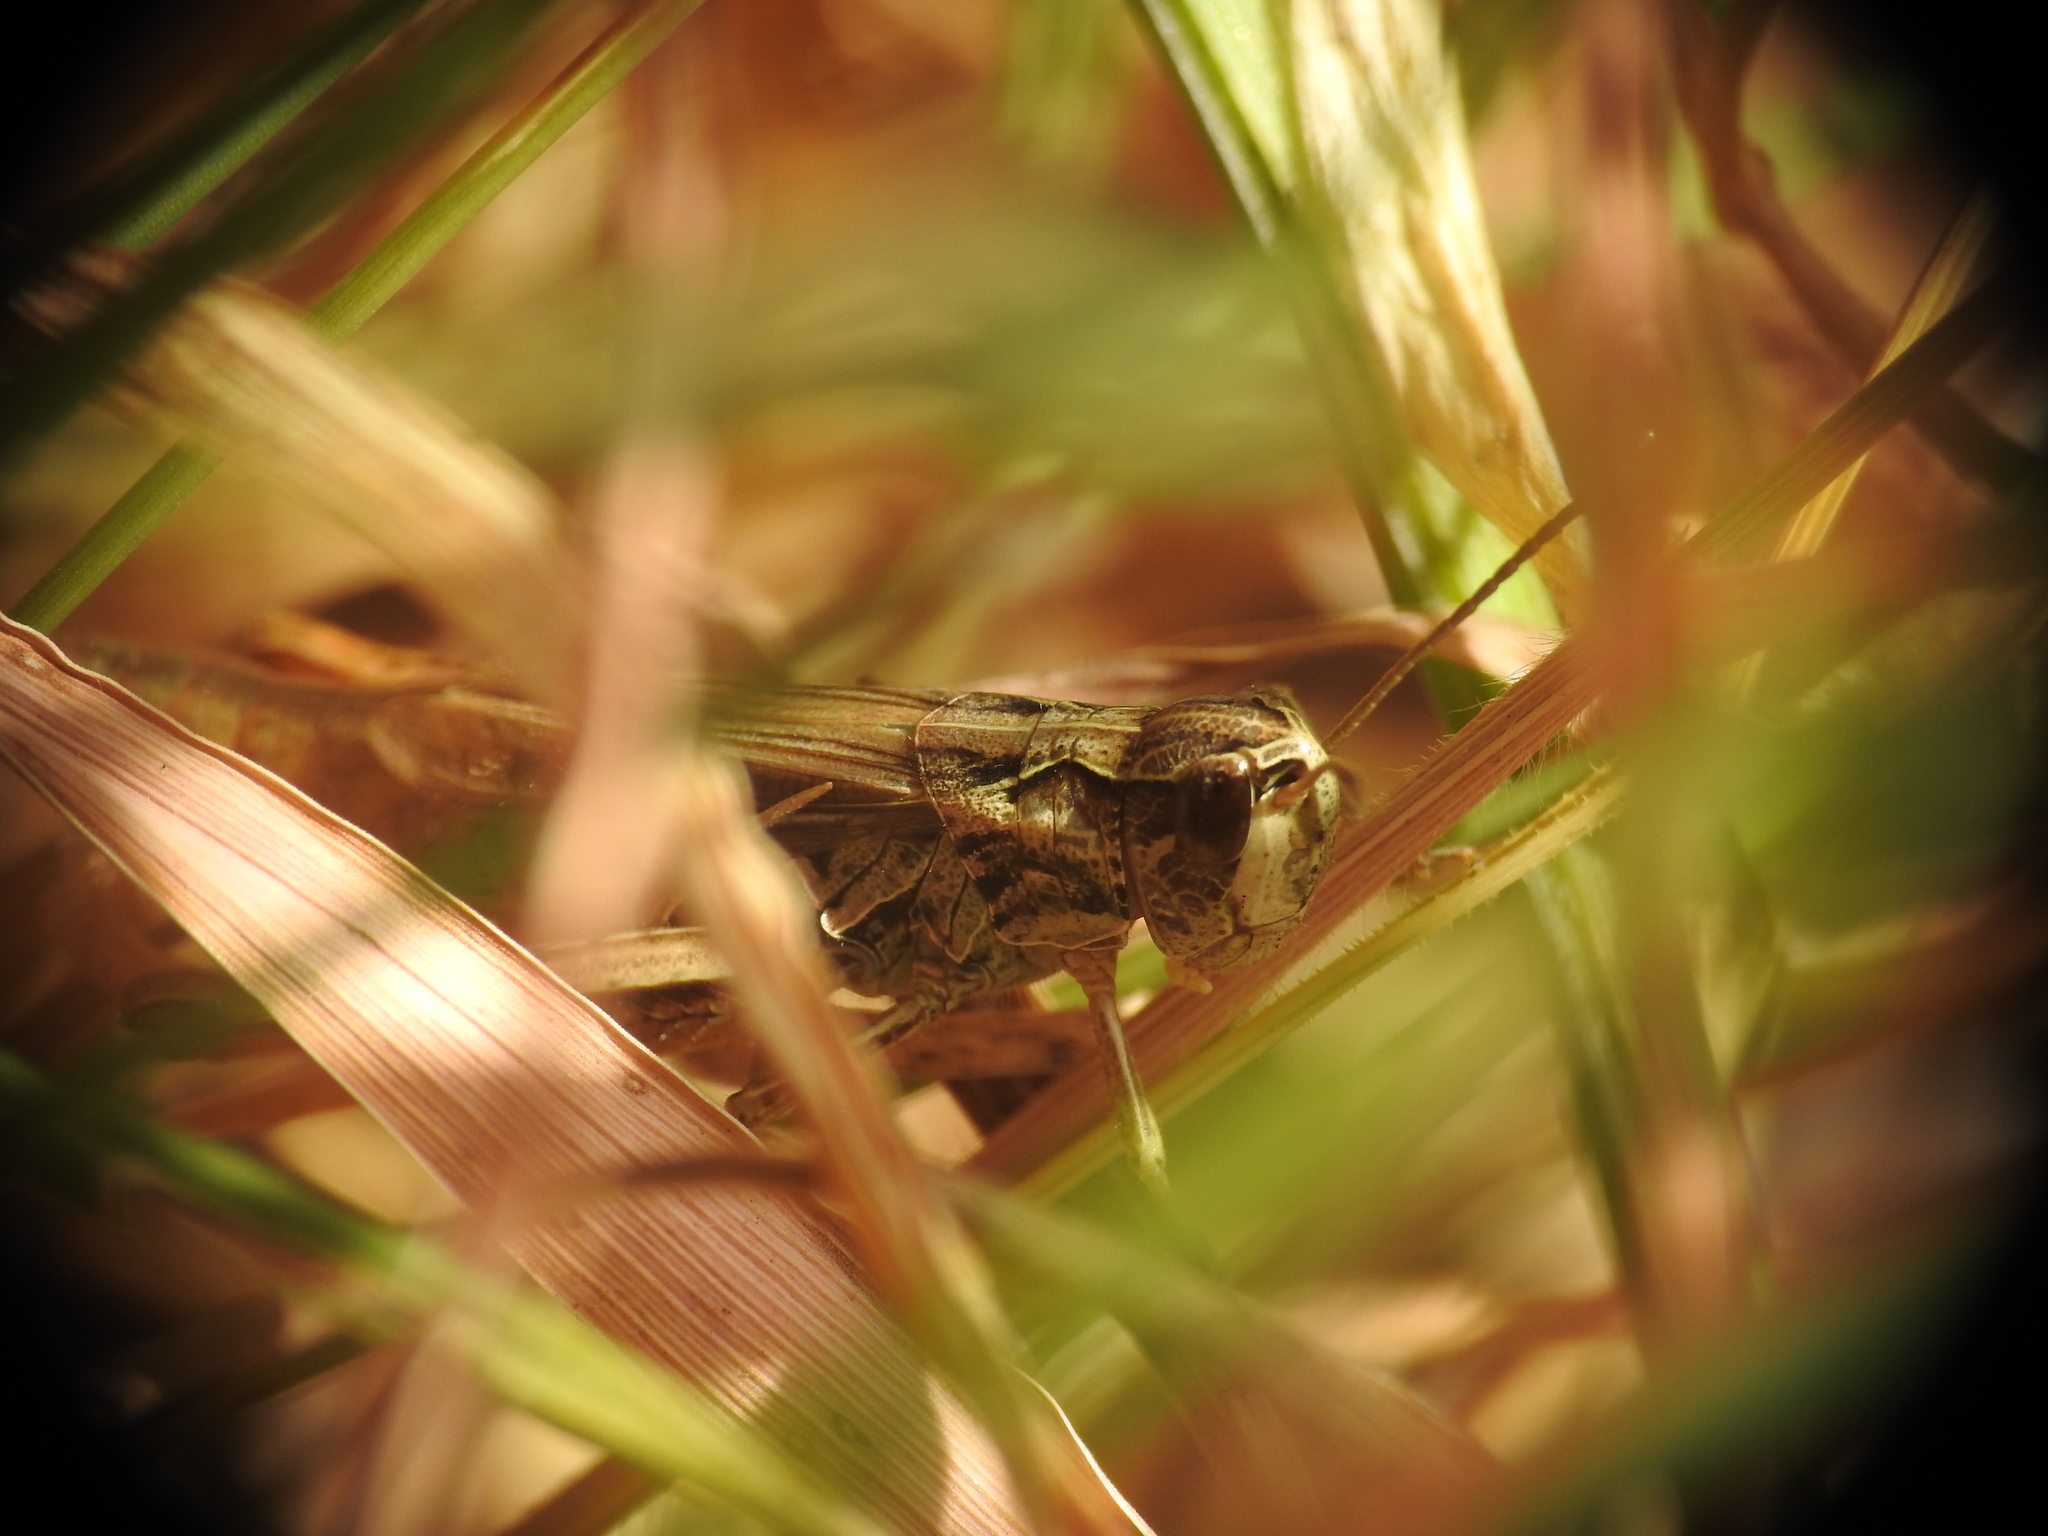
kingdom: Animalia
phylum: Arthropoda
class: Insecta
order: Orthoptera
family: Acrididae
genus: Chorthippus
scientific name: Chorthippus apricarius
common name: Upland field grasshopper
